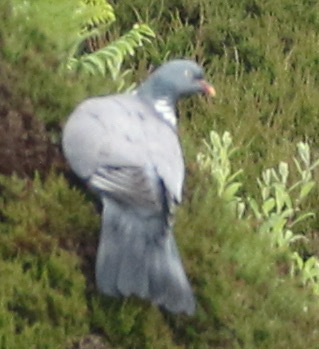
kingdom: Animalia
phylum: Chordata
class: Aves
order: Columbiformes
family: Columbidae
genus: Columba
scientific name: Columba palumbus
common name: Common wood pigeon
